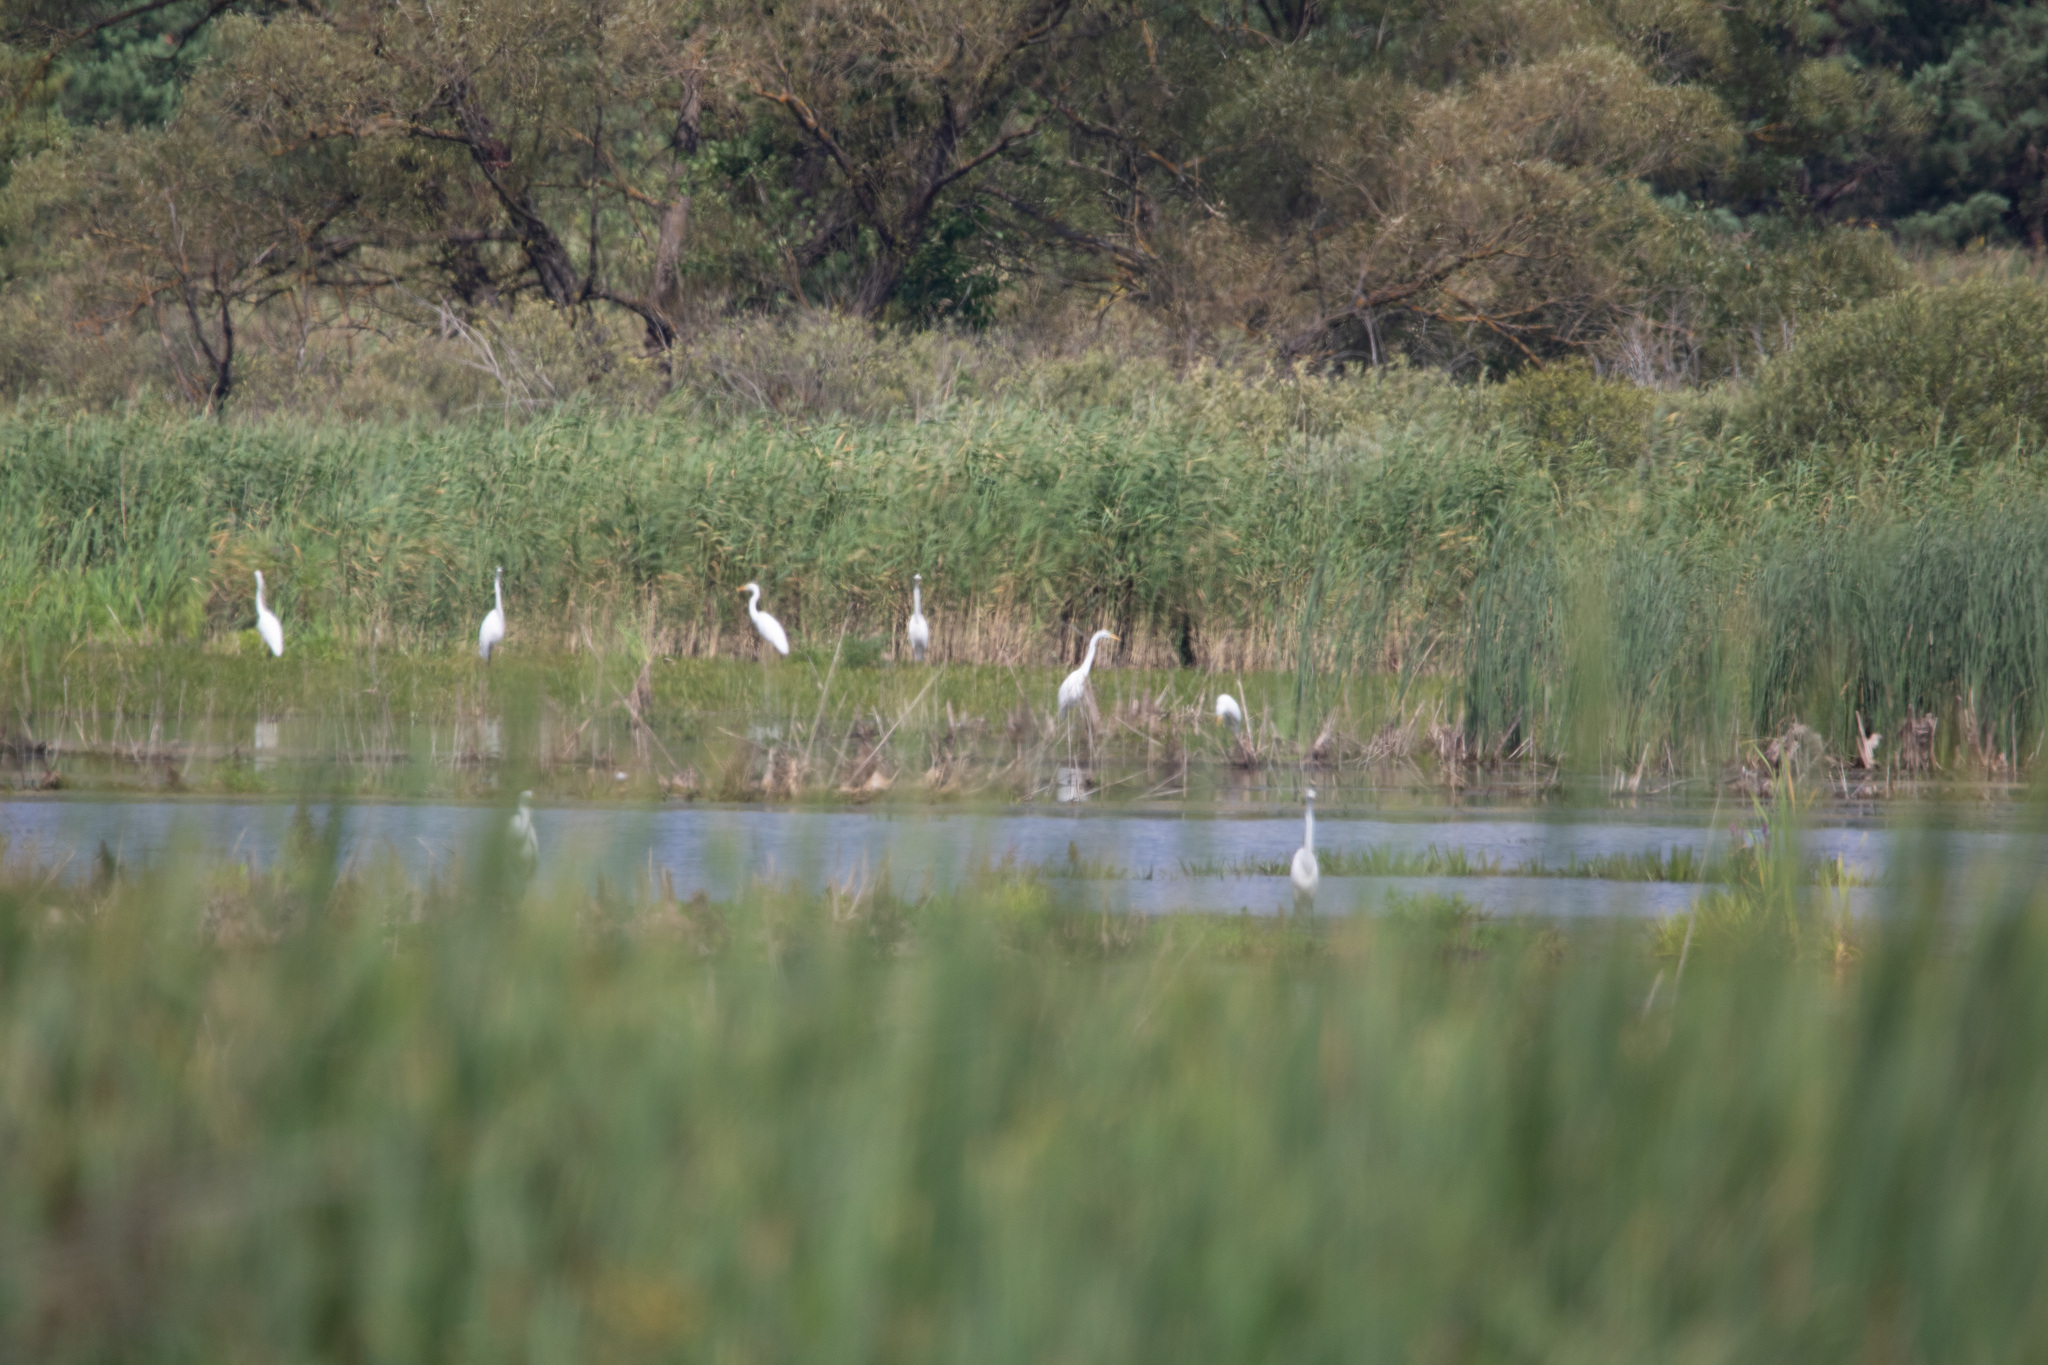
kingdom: Animalia
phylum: Chordata
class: Aves
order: Pelecaniformes
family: Ardeidae
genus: Ardea
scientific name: Ardea alba
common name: Great egret
